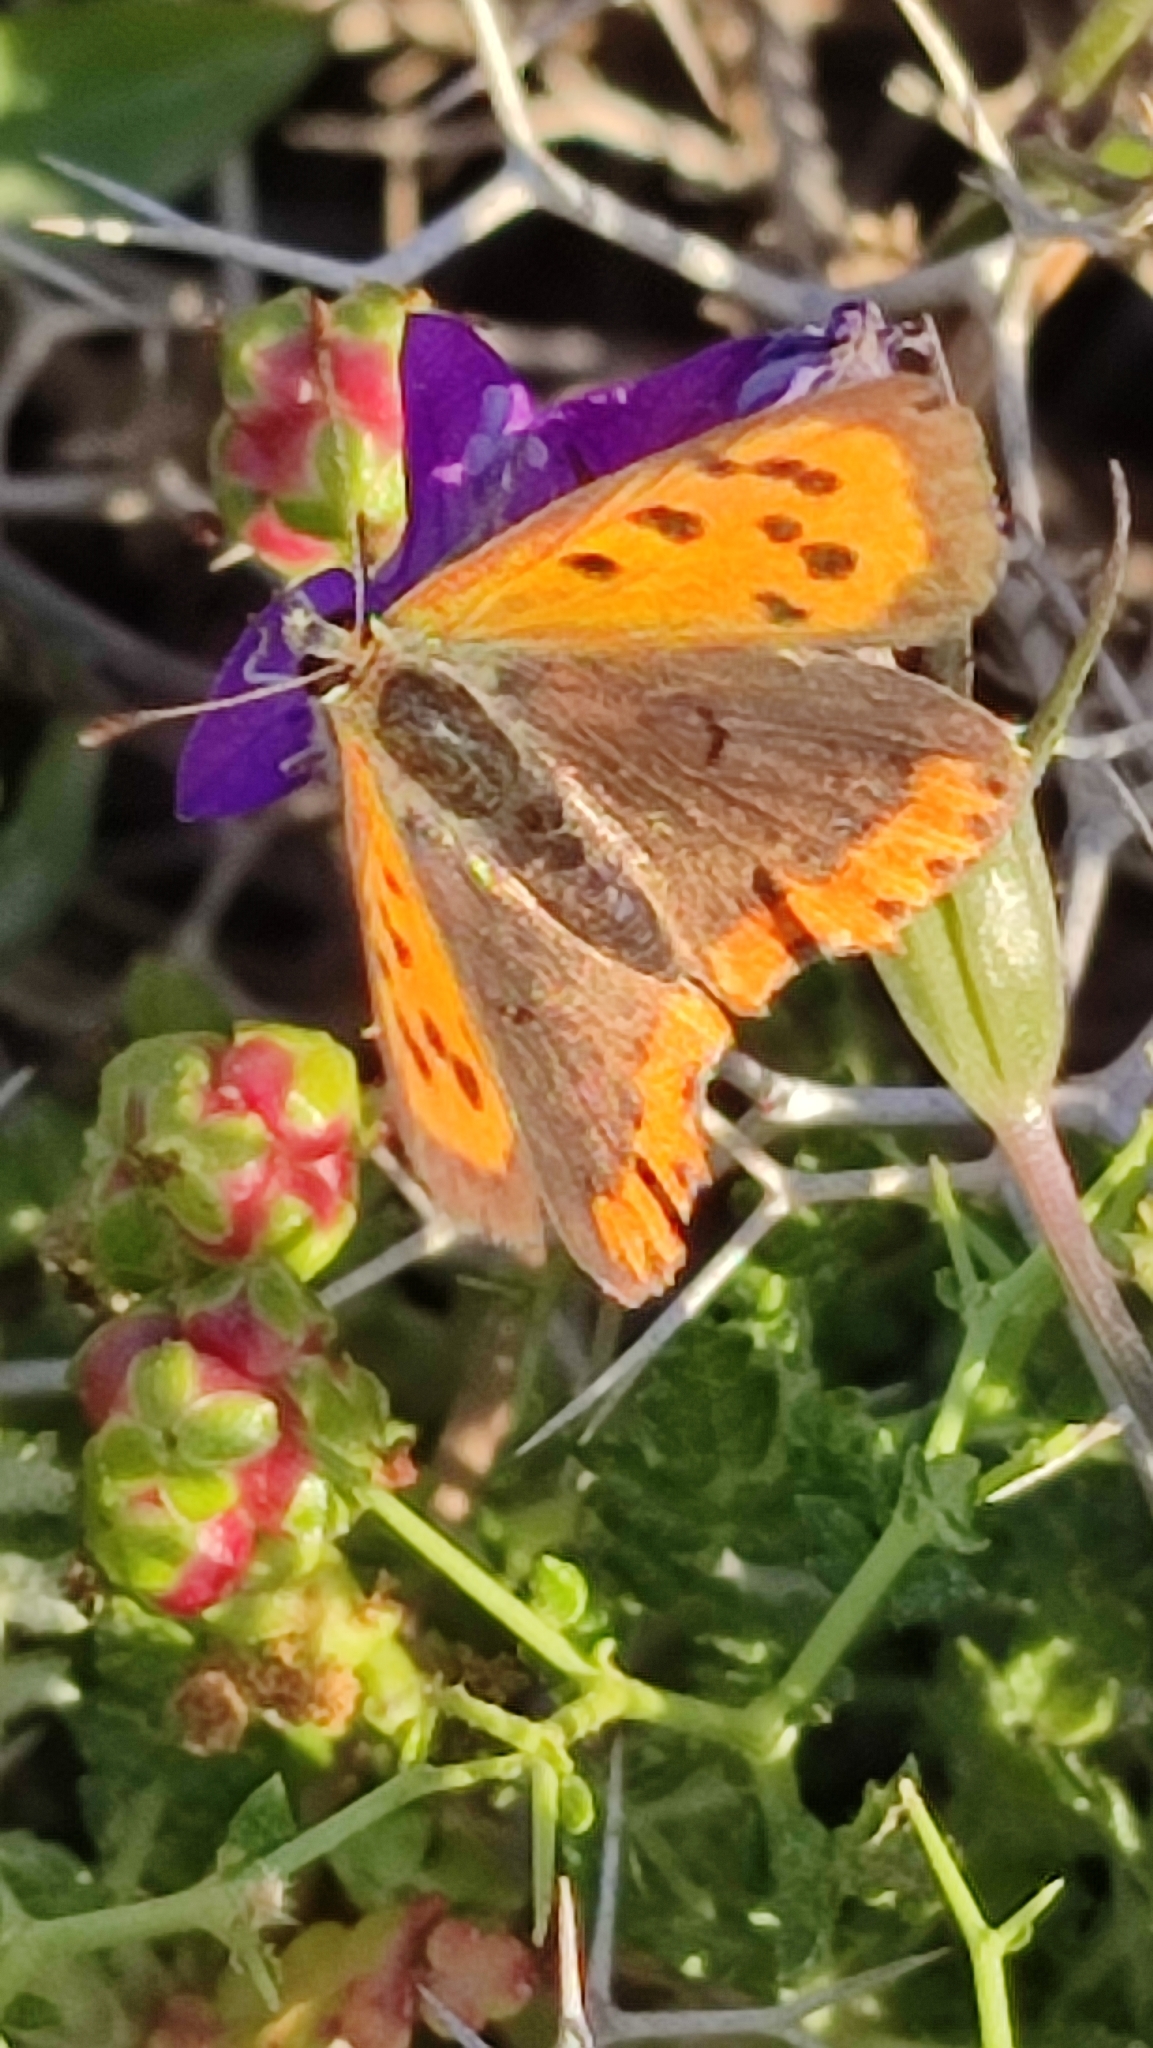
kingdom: Animalia
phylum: Arthropoda
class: Insecta
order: Lepidoptera
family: Lycaenidae
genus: Lycaena
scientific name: Lycaena phlaeas
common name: Small copper
